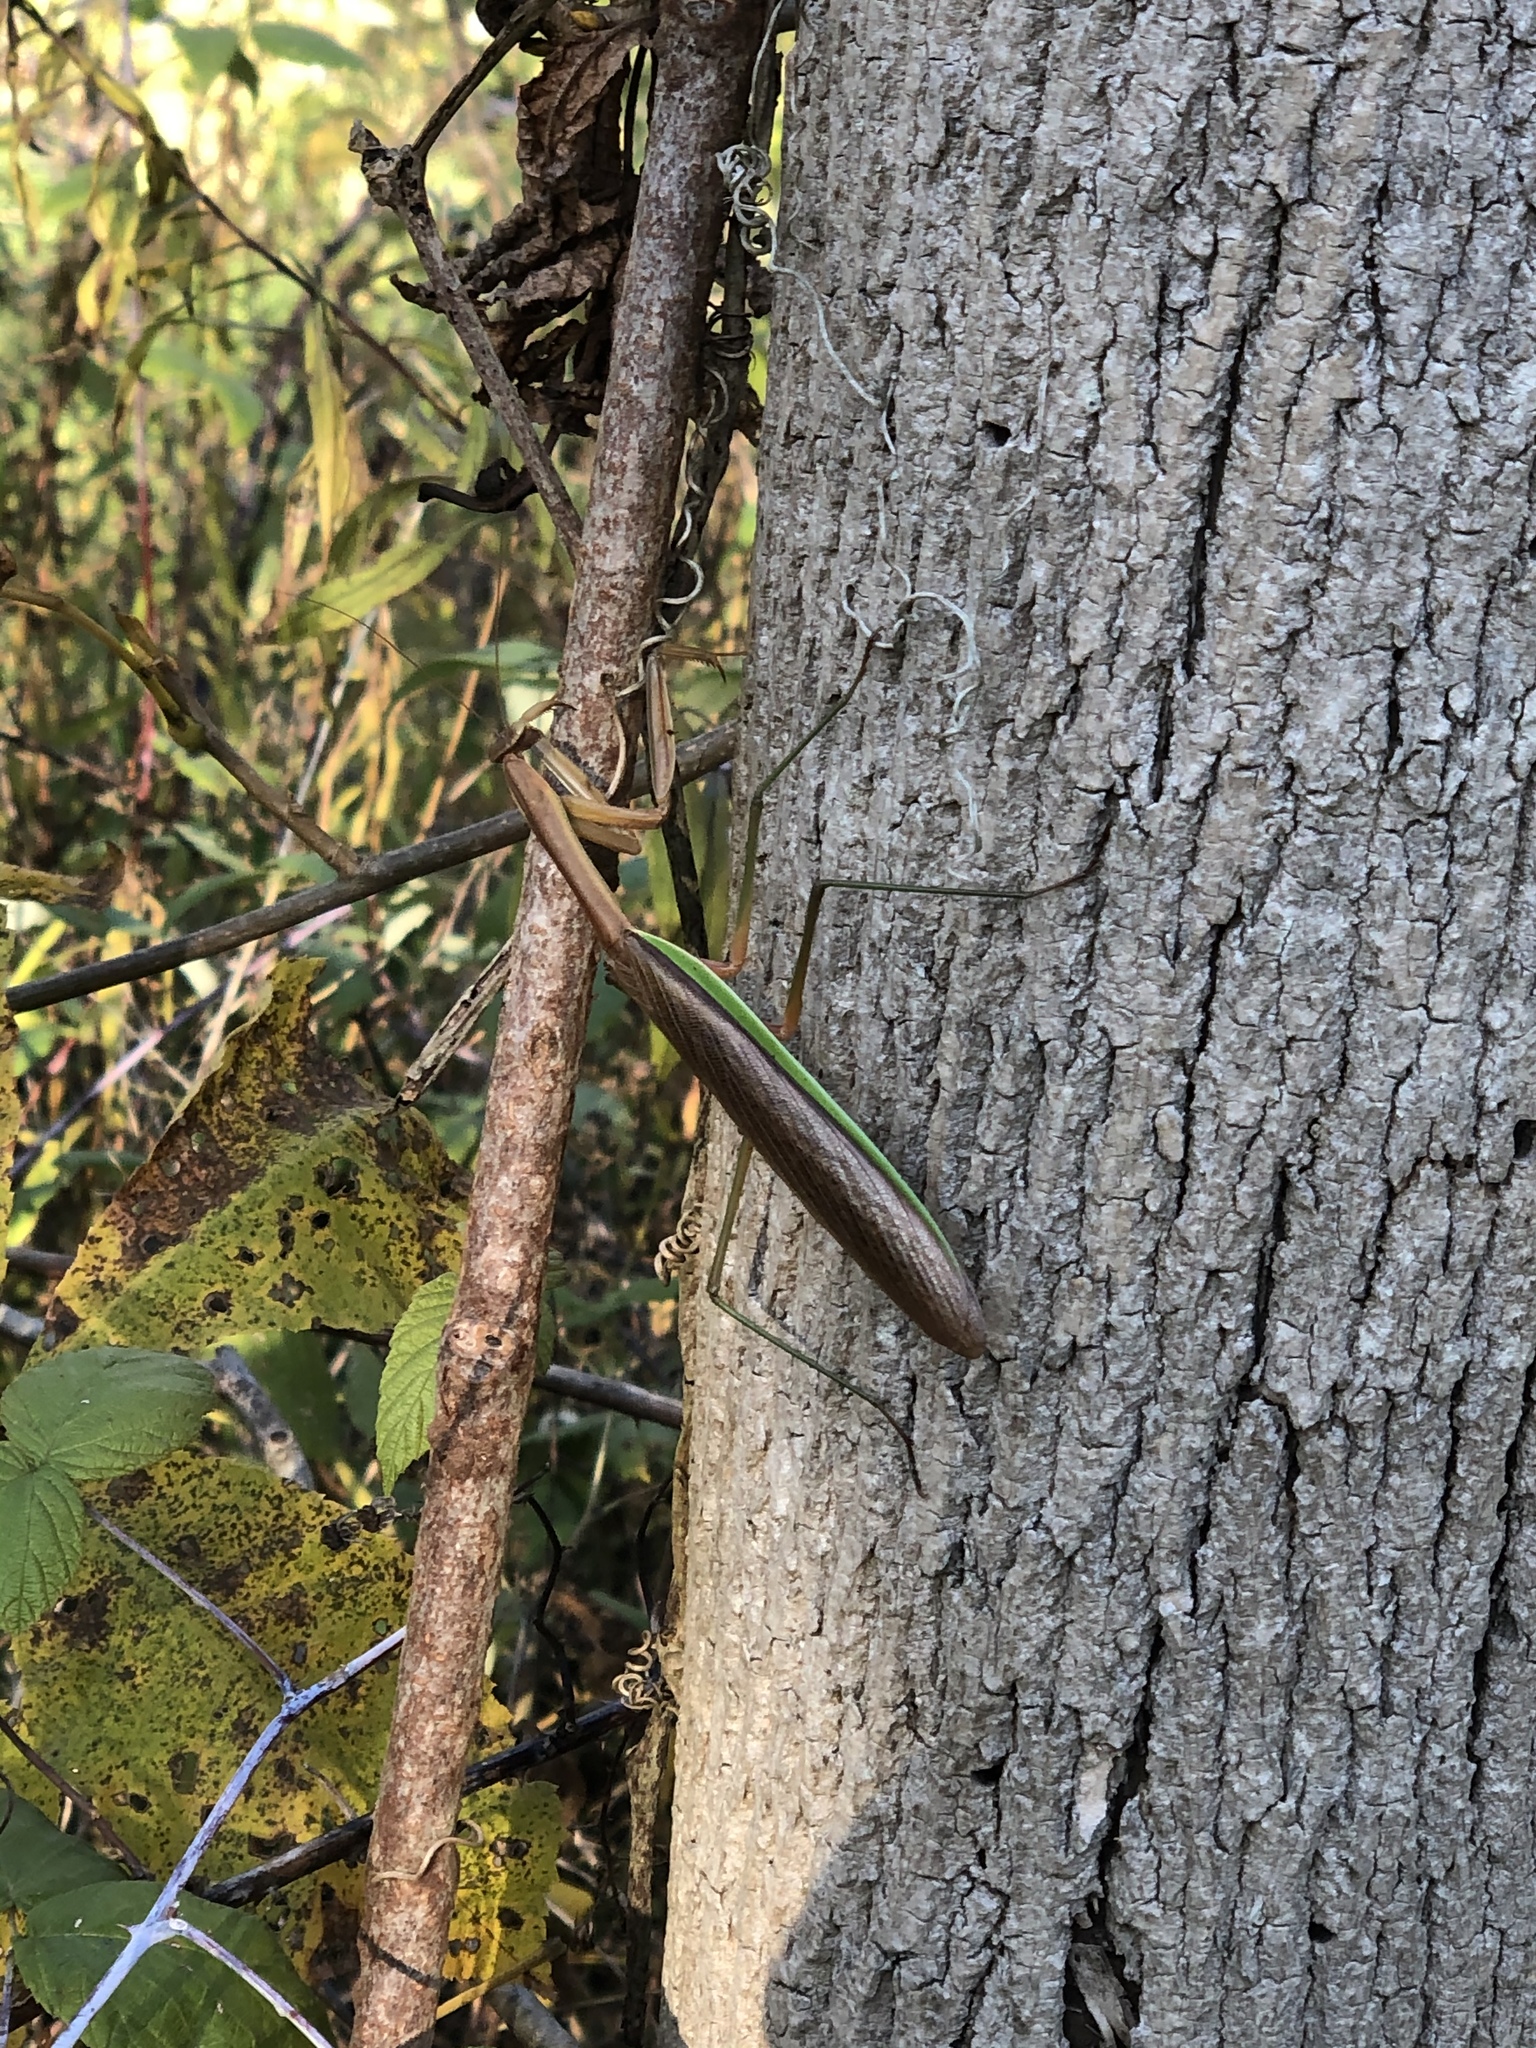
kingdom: Animalia
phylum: Arthropoda
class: Insecta
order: Mantodea
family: Mantidae
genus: Tenodera
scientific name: Tenodera sinensis
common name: Chinese mantis
